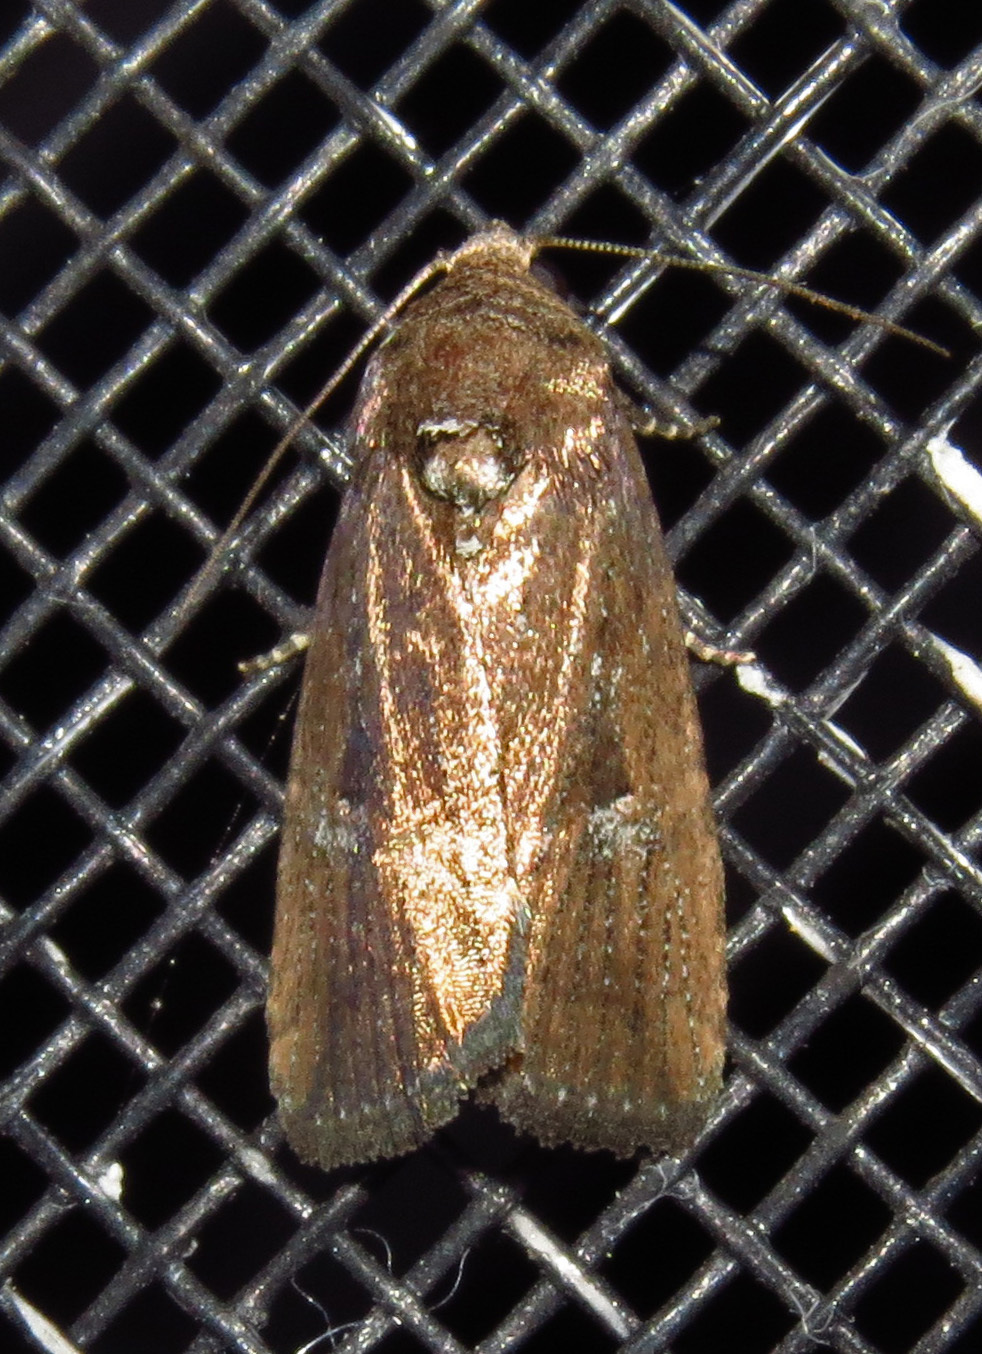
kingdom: Animalia
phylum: Arthropoda
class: Insecta
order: Lepidoptera
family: Noctuidae
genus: Elaphria
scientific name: Elaphria nucicolora
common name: Sugarcane midget moth
